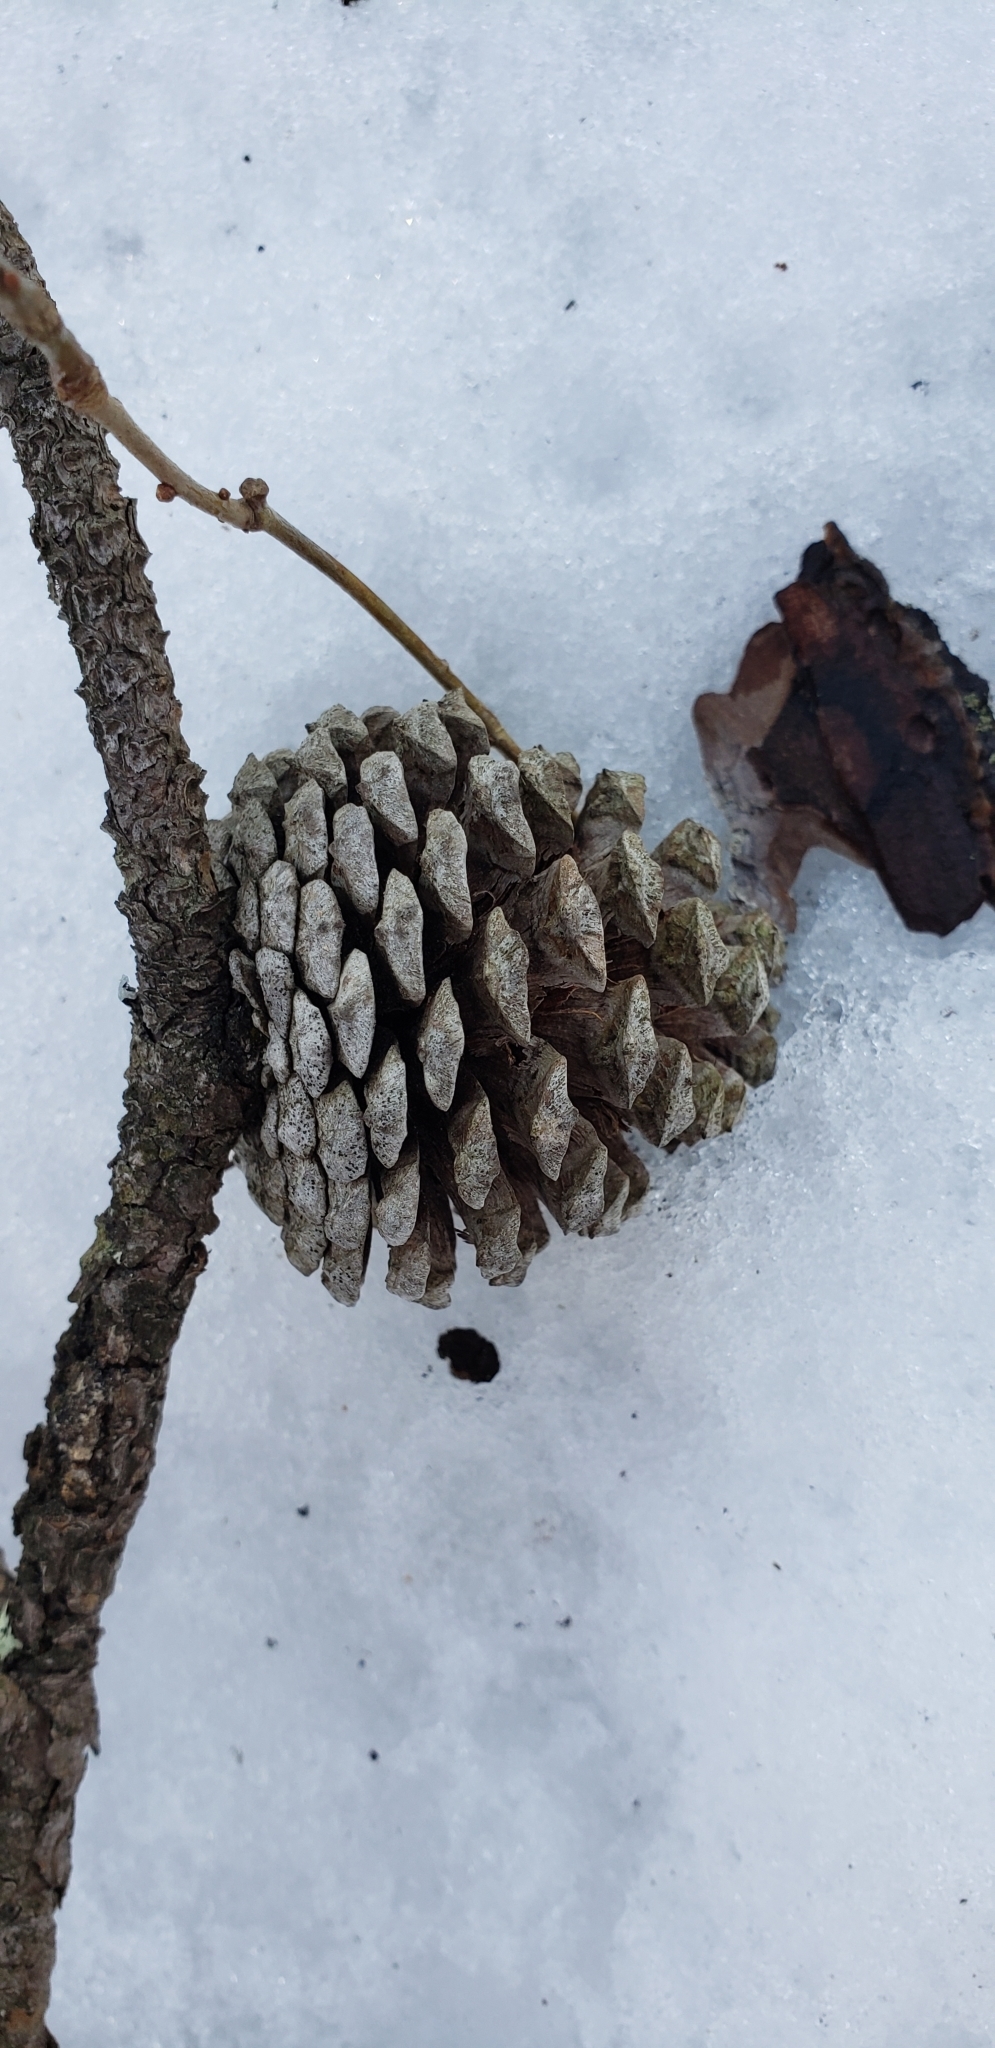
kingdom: Plantae
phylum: Tracheophyta
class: Pinopsida
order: Pinales
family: Pinaceae
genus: Pinus
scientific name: Pinus rigida
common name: Pitch pine
